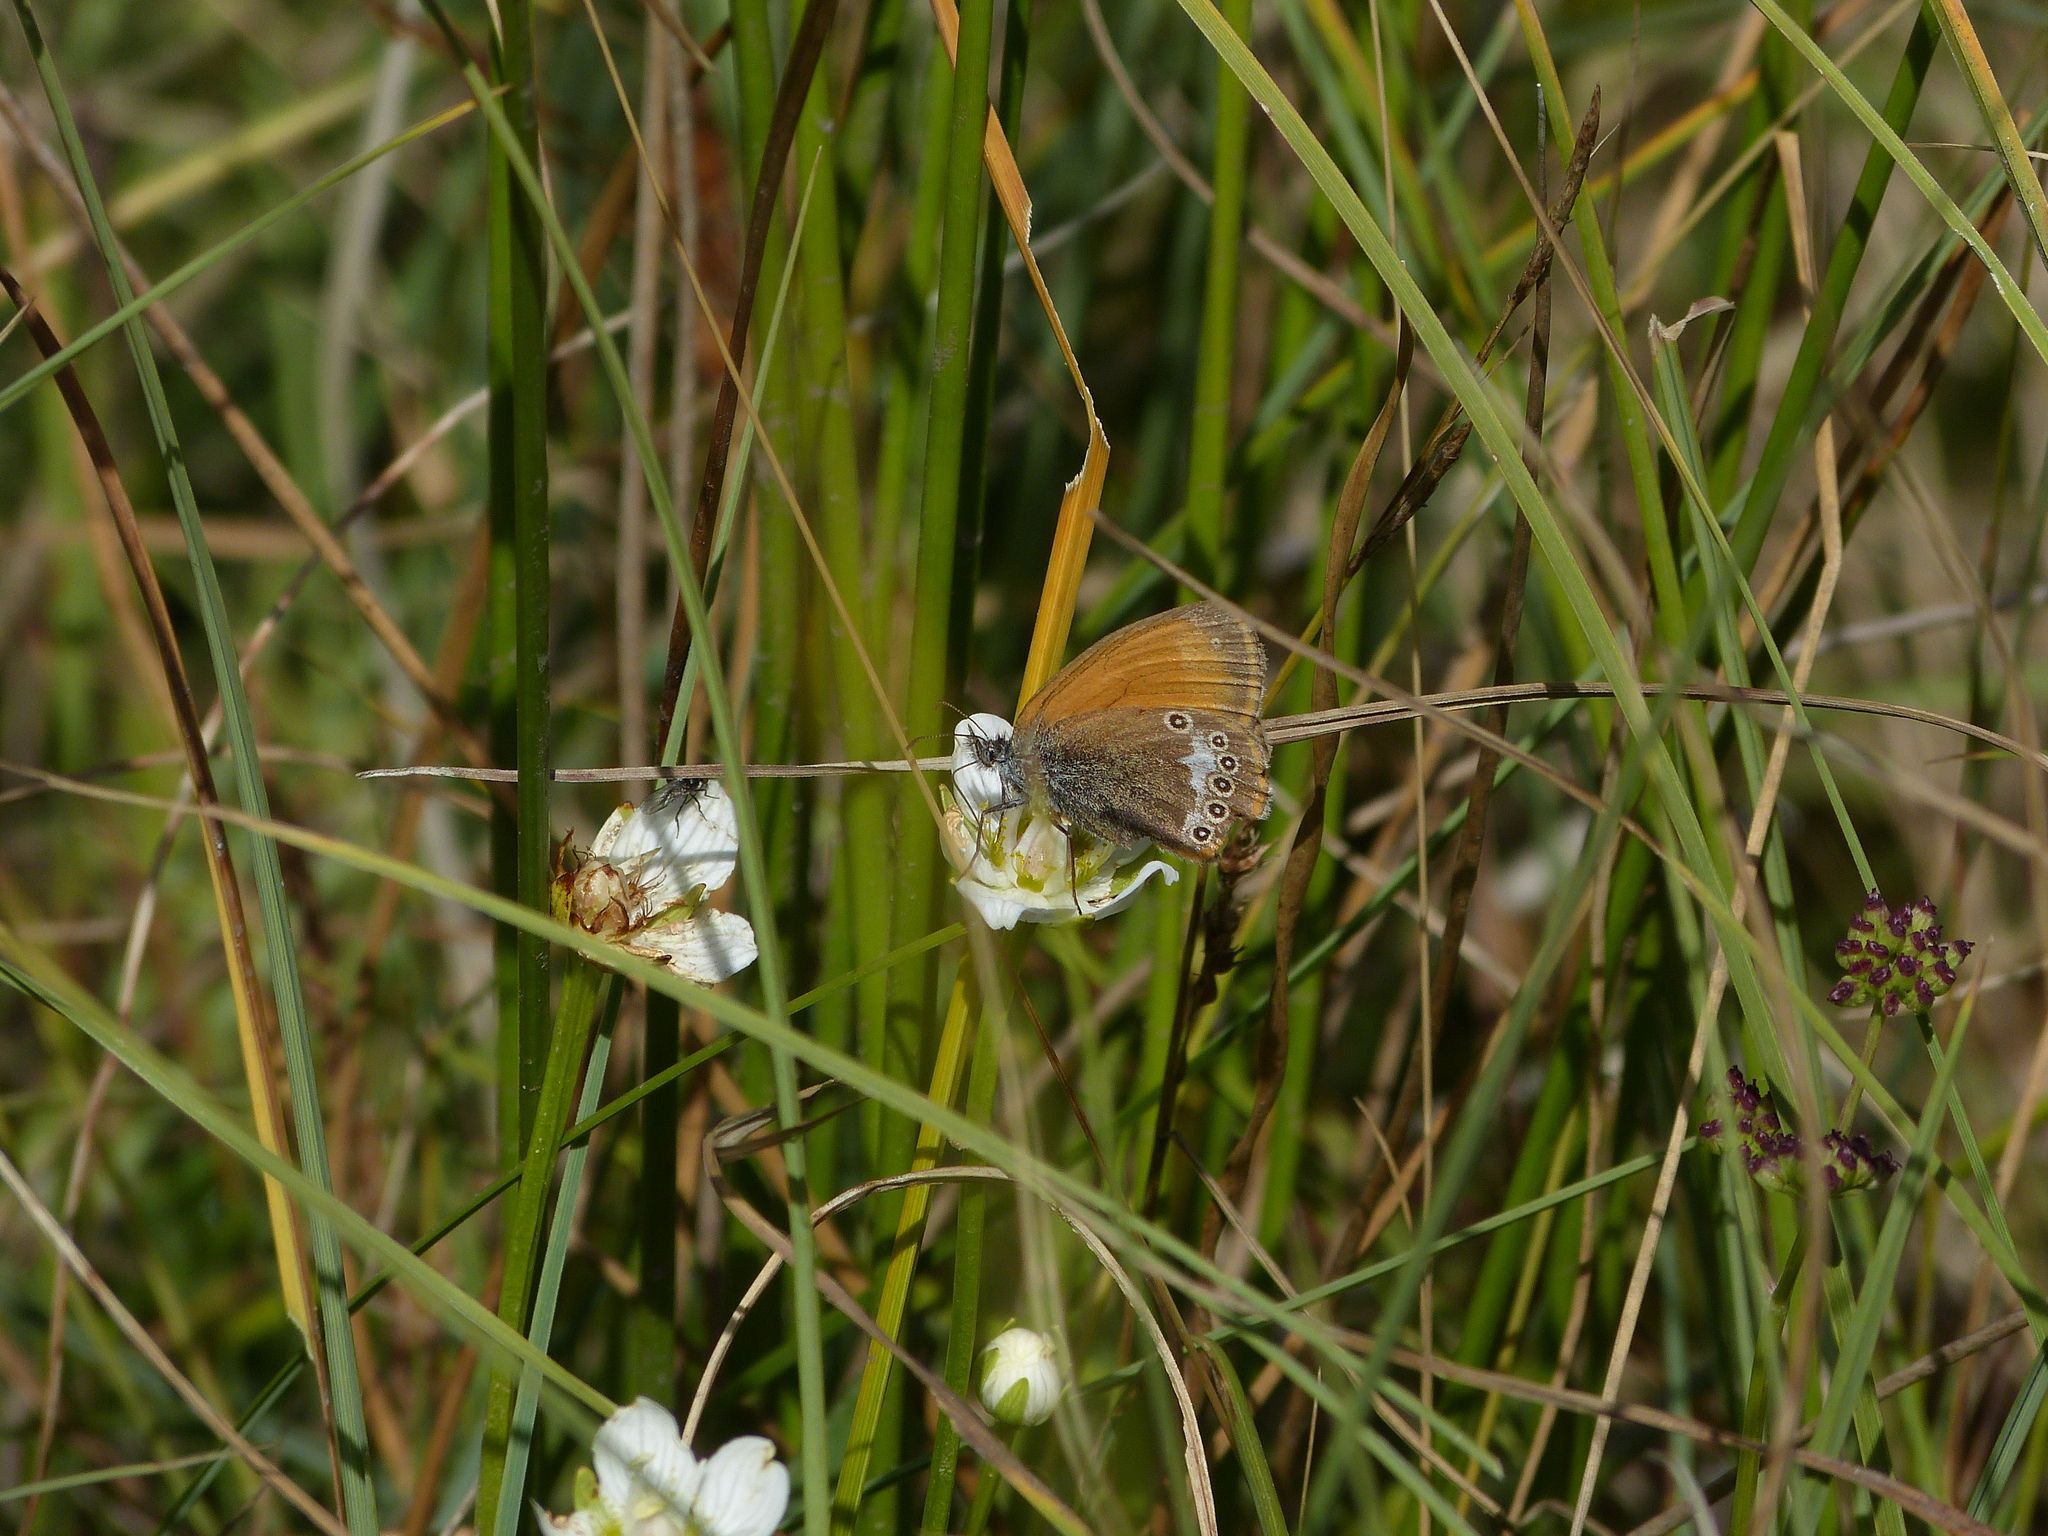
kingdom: Animalia
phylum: Arthropoda
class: Insecta
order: Lepidoptera
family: Nymphalidae
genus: Coenonympha
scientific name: Coenonympha arcania
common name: Pearly heath
